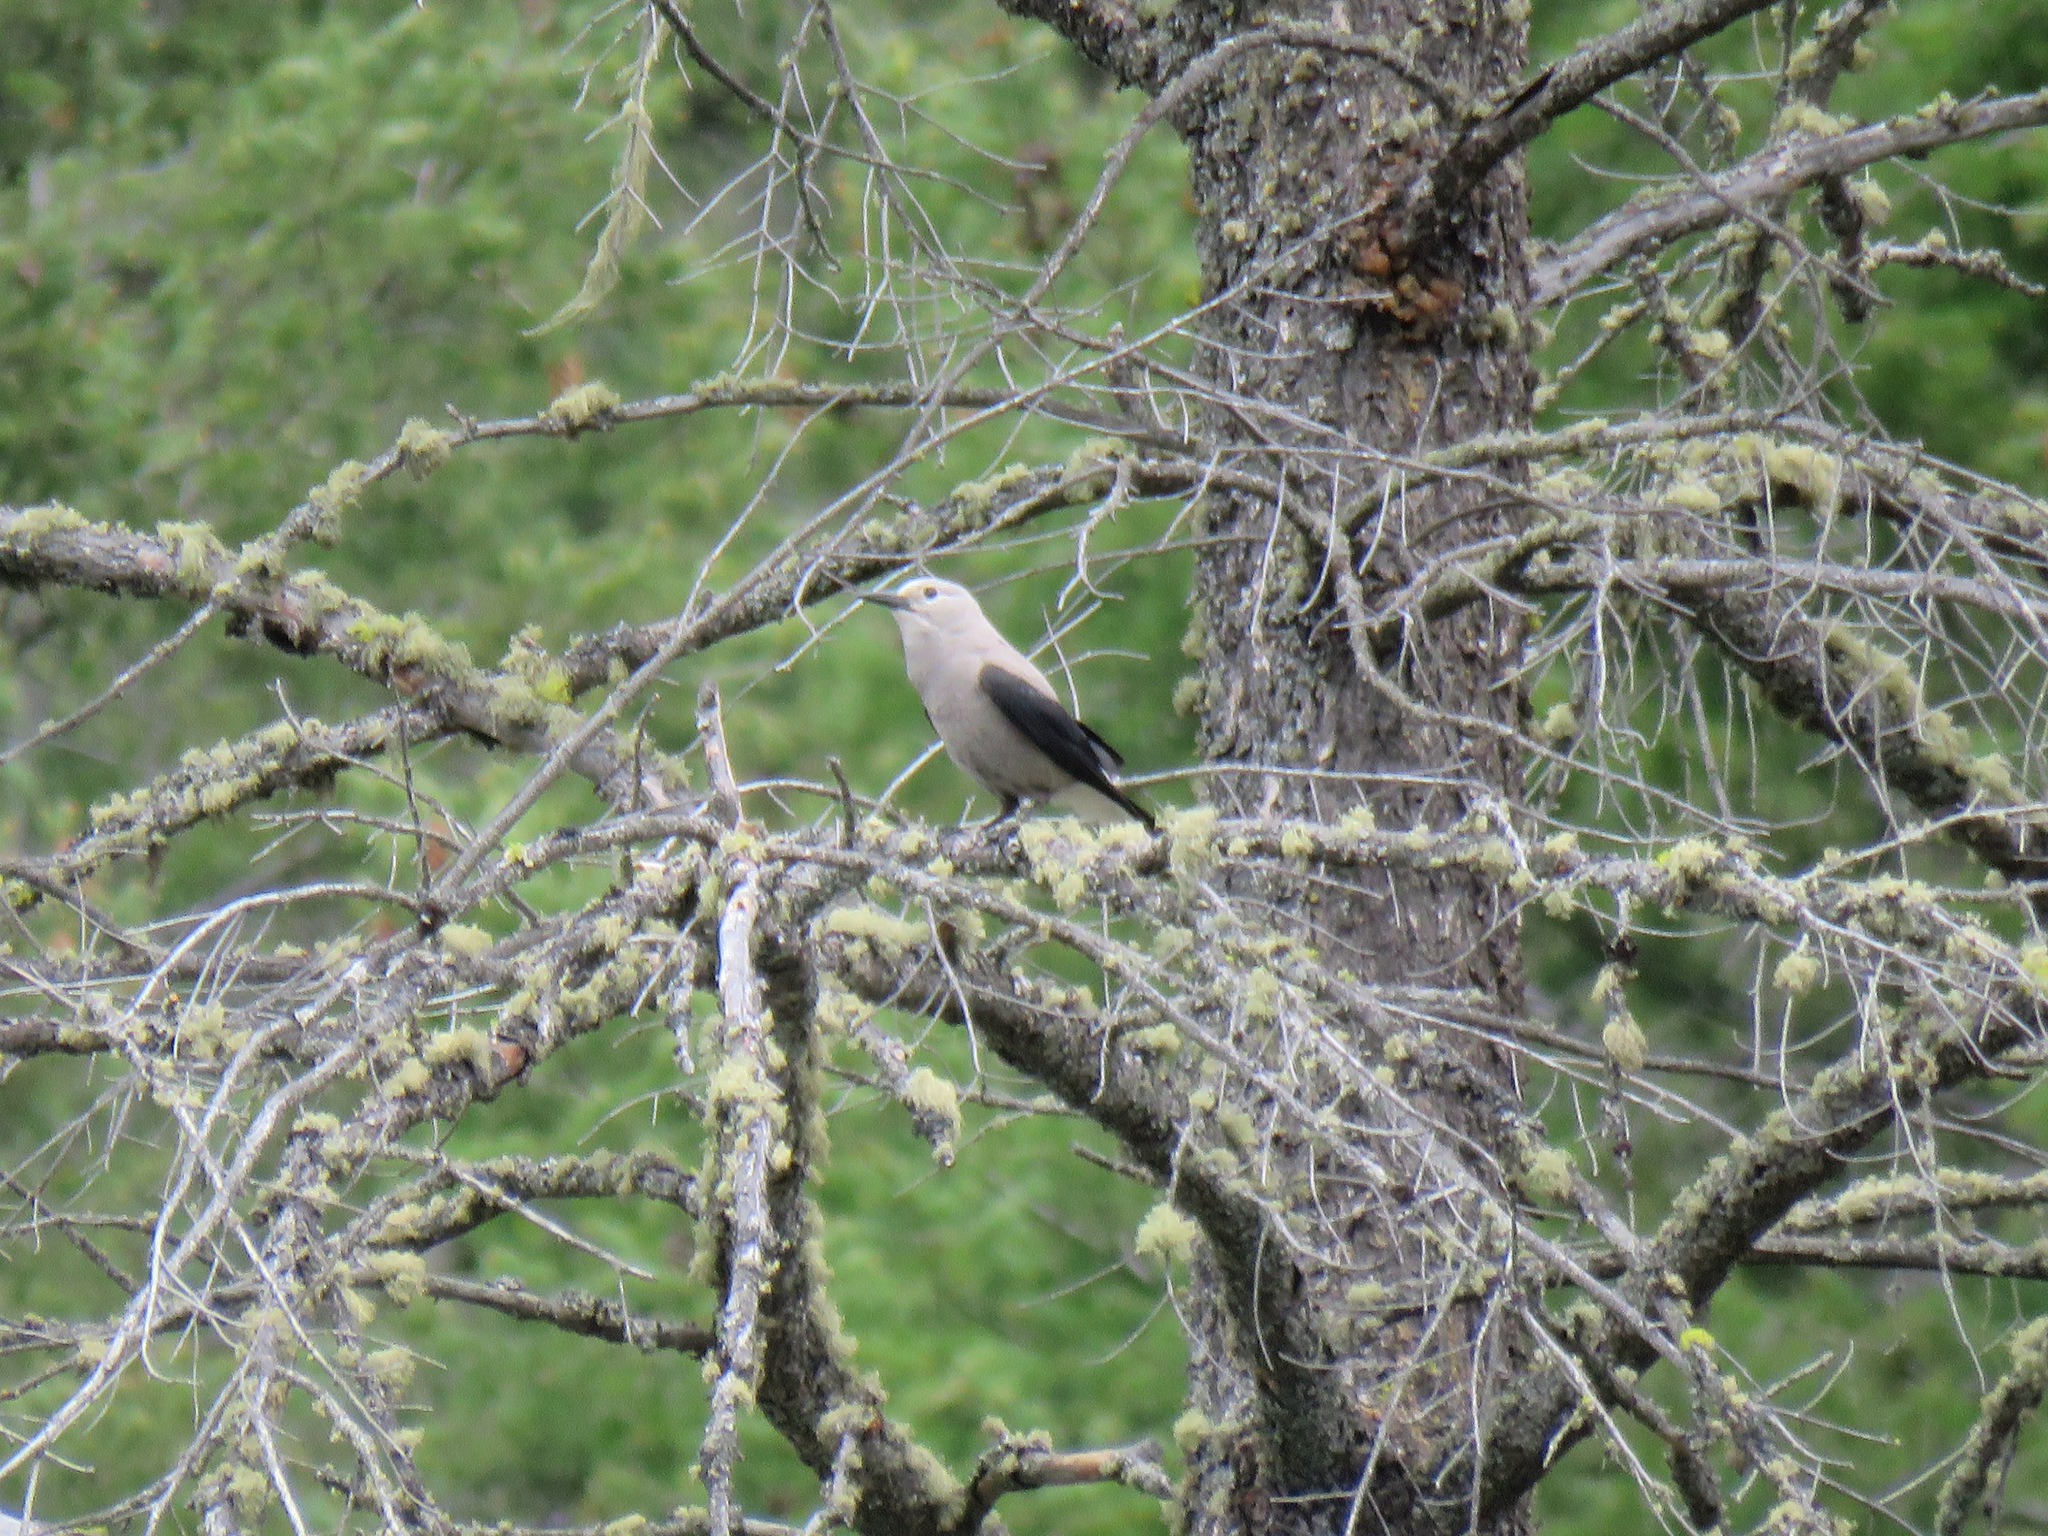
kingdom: Animalia
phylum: Chordata
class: Aves
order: Passeriformes
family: Corvidae
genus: Nucifraga
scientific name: Nucifraga columbiana
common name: Clark's nutcracker
